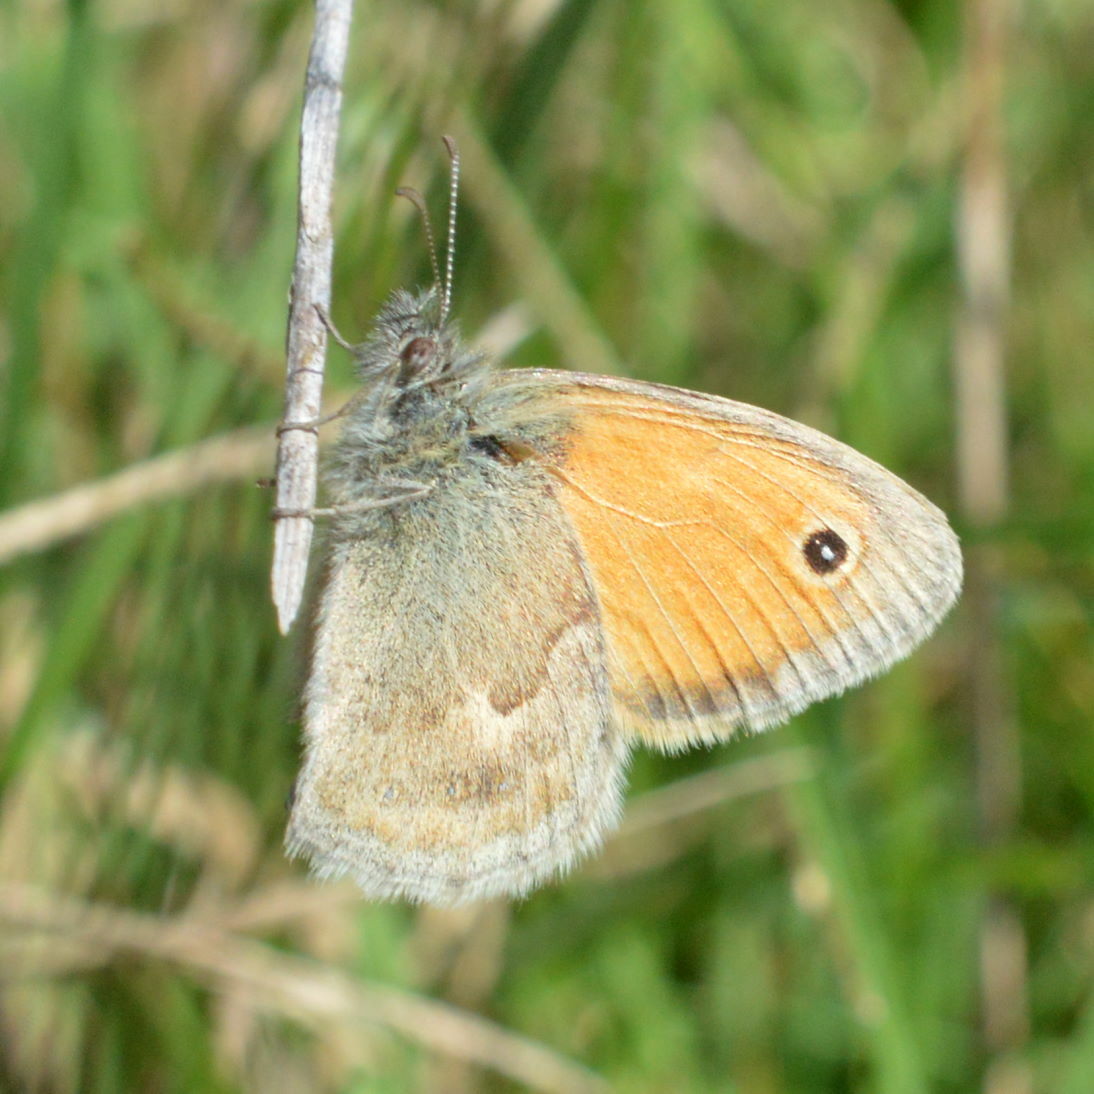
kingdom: Animalia
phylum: Arthropoda
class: Insecta
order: Lepidoptera
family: Nymphalidae
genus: Coenonympha
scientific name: Coenonympha pamphilus
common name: Small heath
